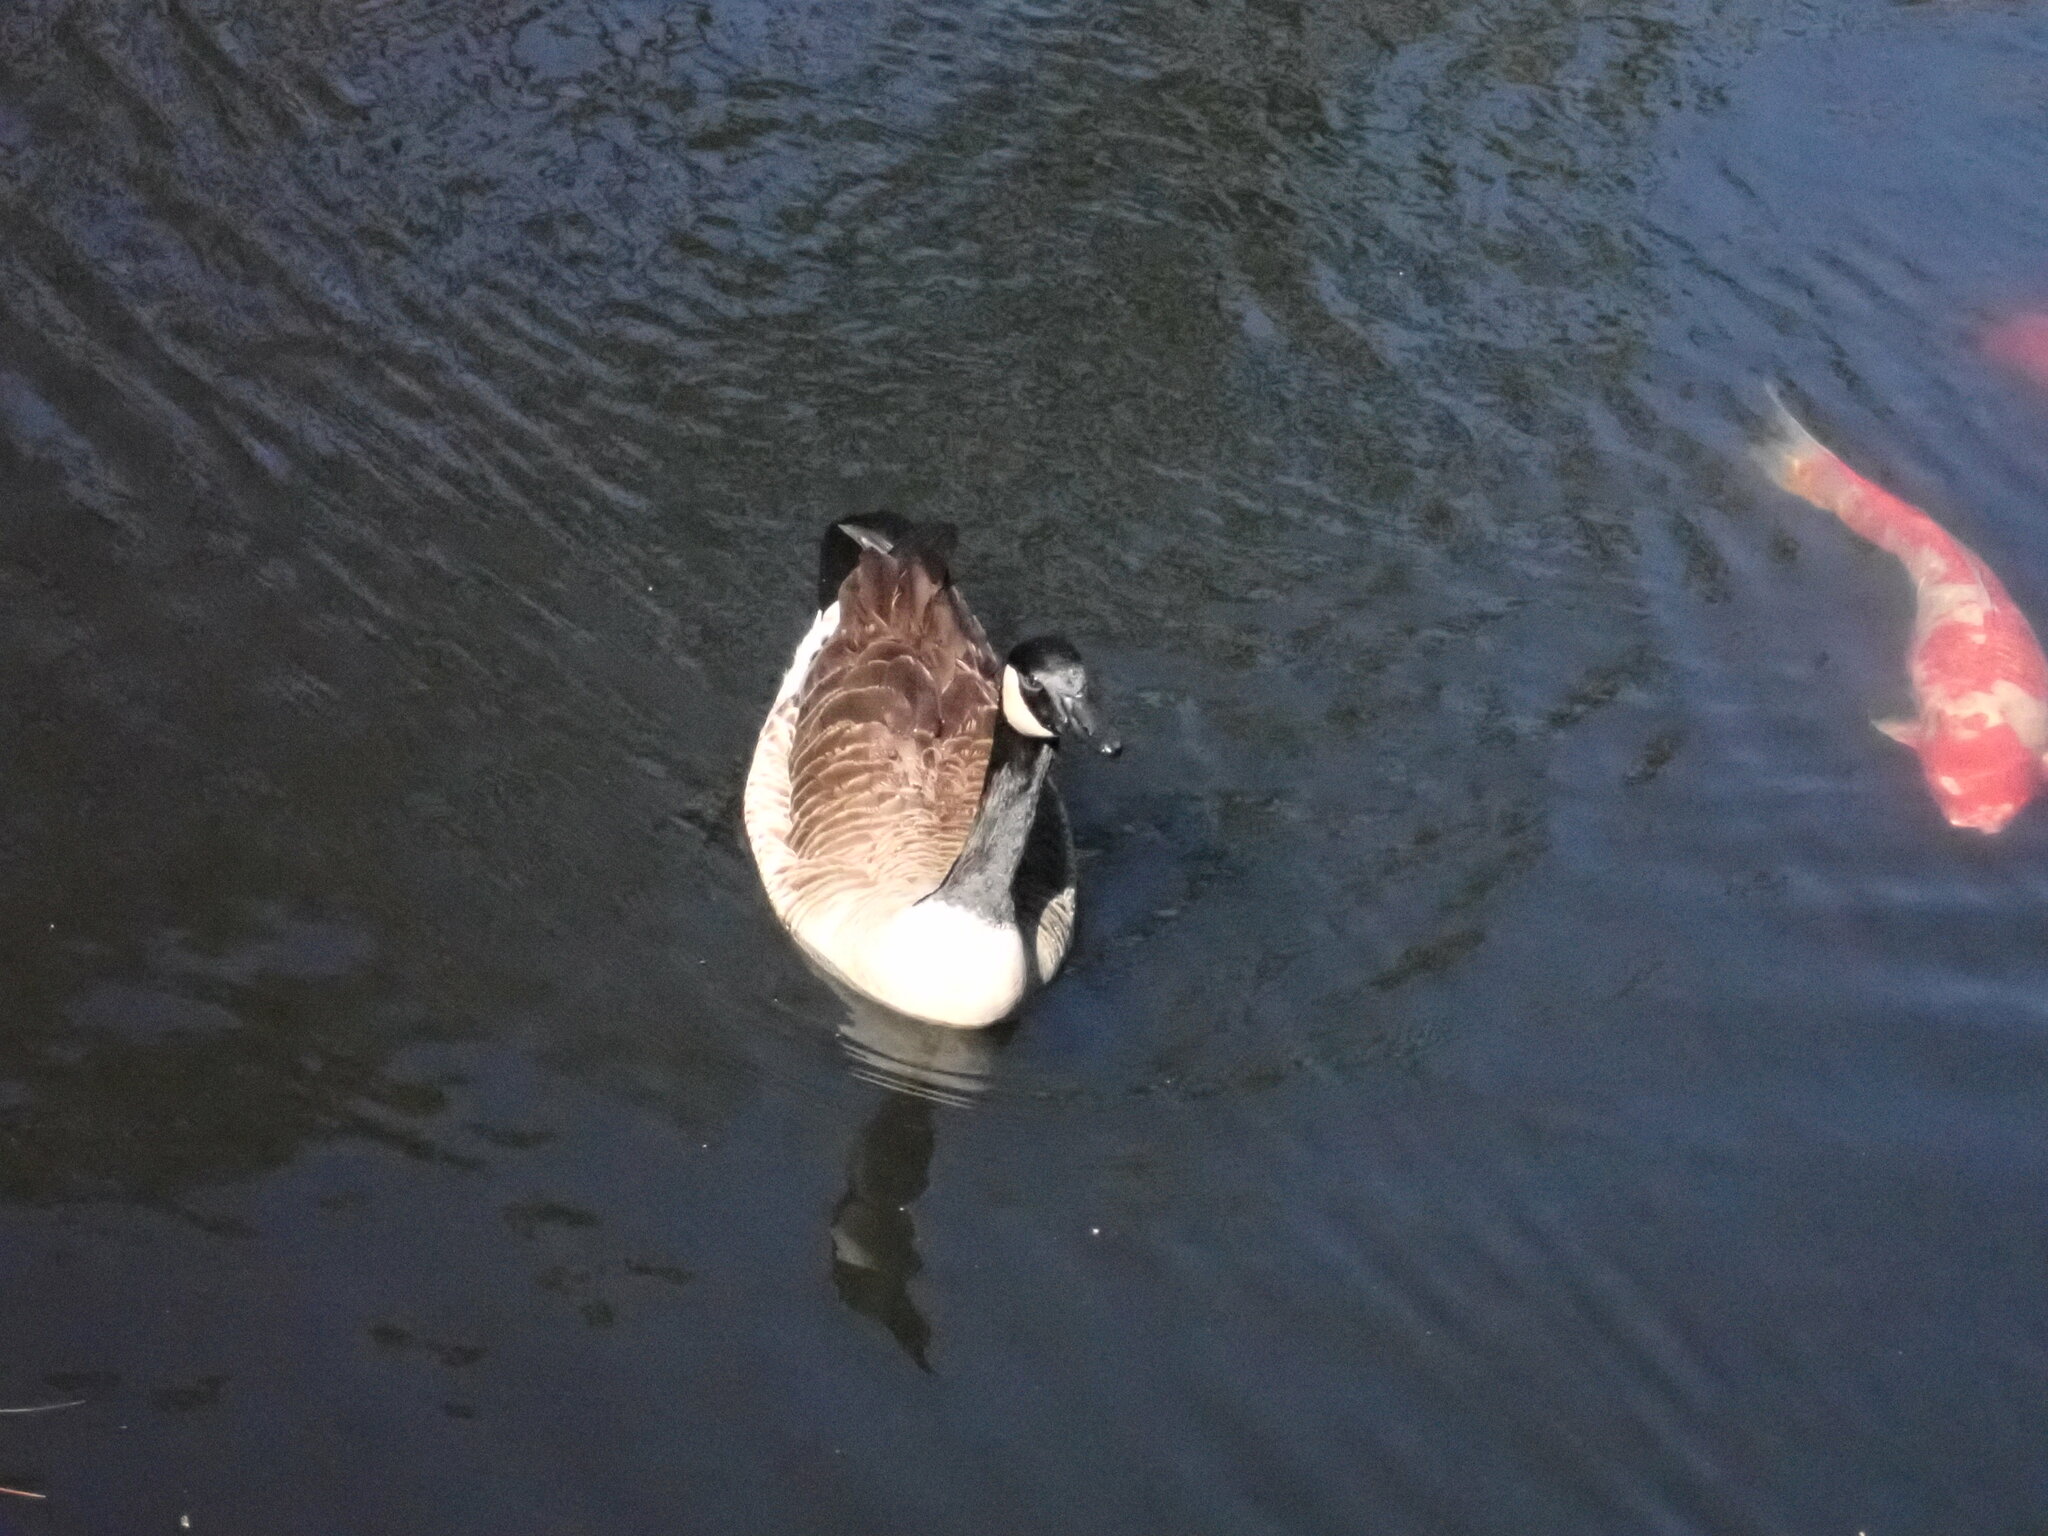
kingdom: Animalia
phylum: Chordata
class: Aves
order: Anseriformes
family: Anatidae
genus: Branta
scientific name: Branta canadensis
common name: Canada goose
